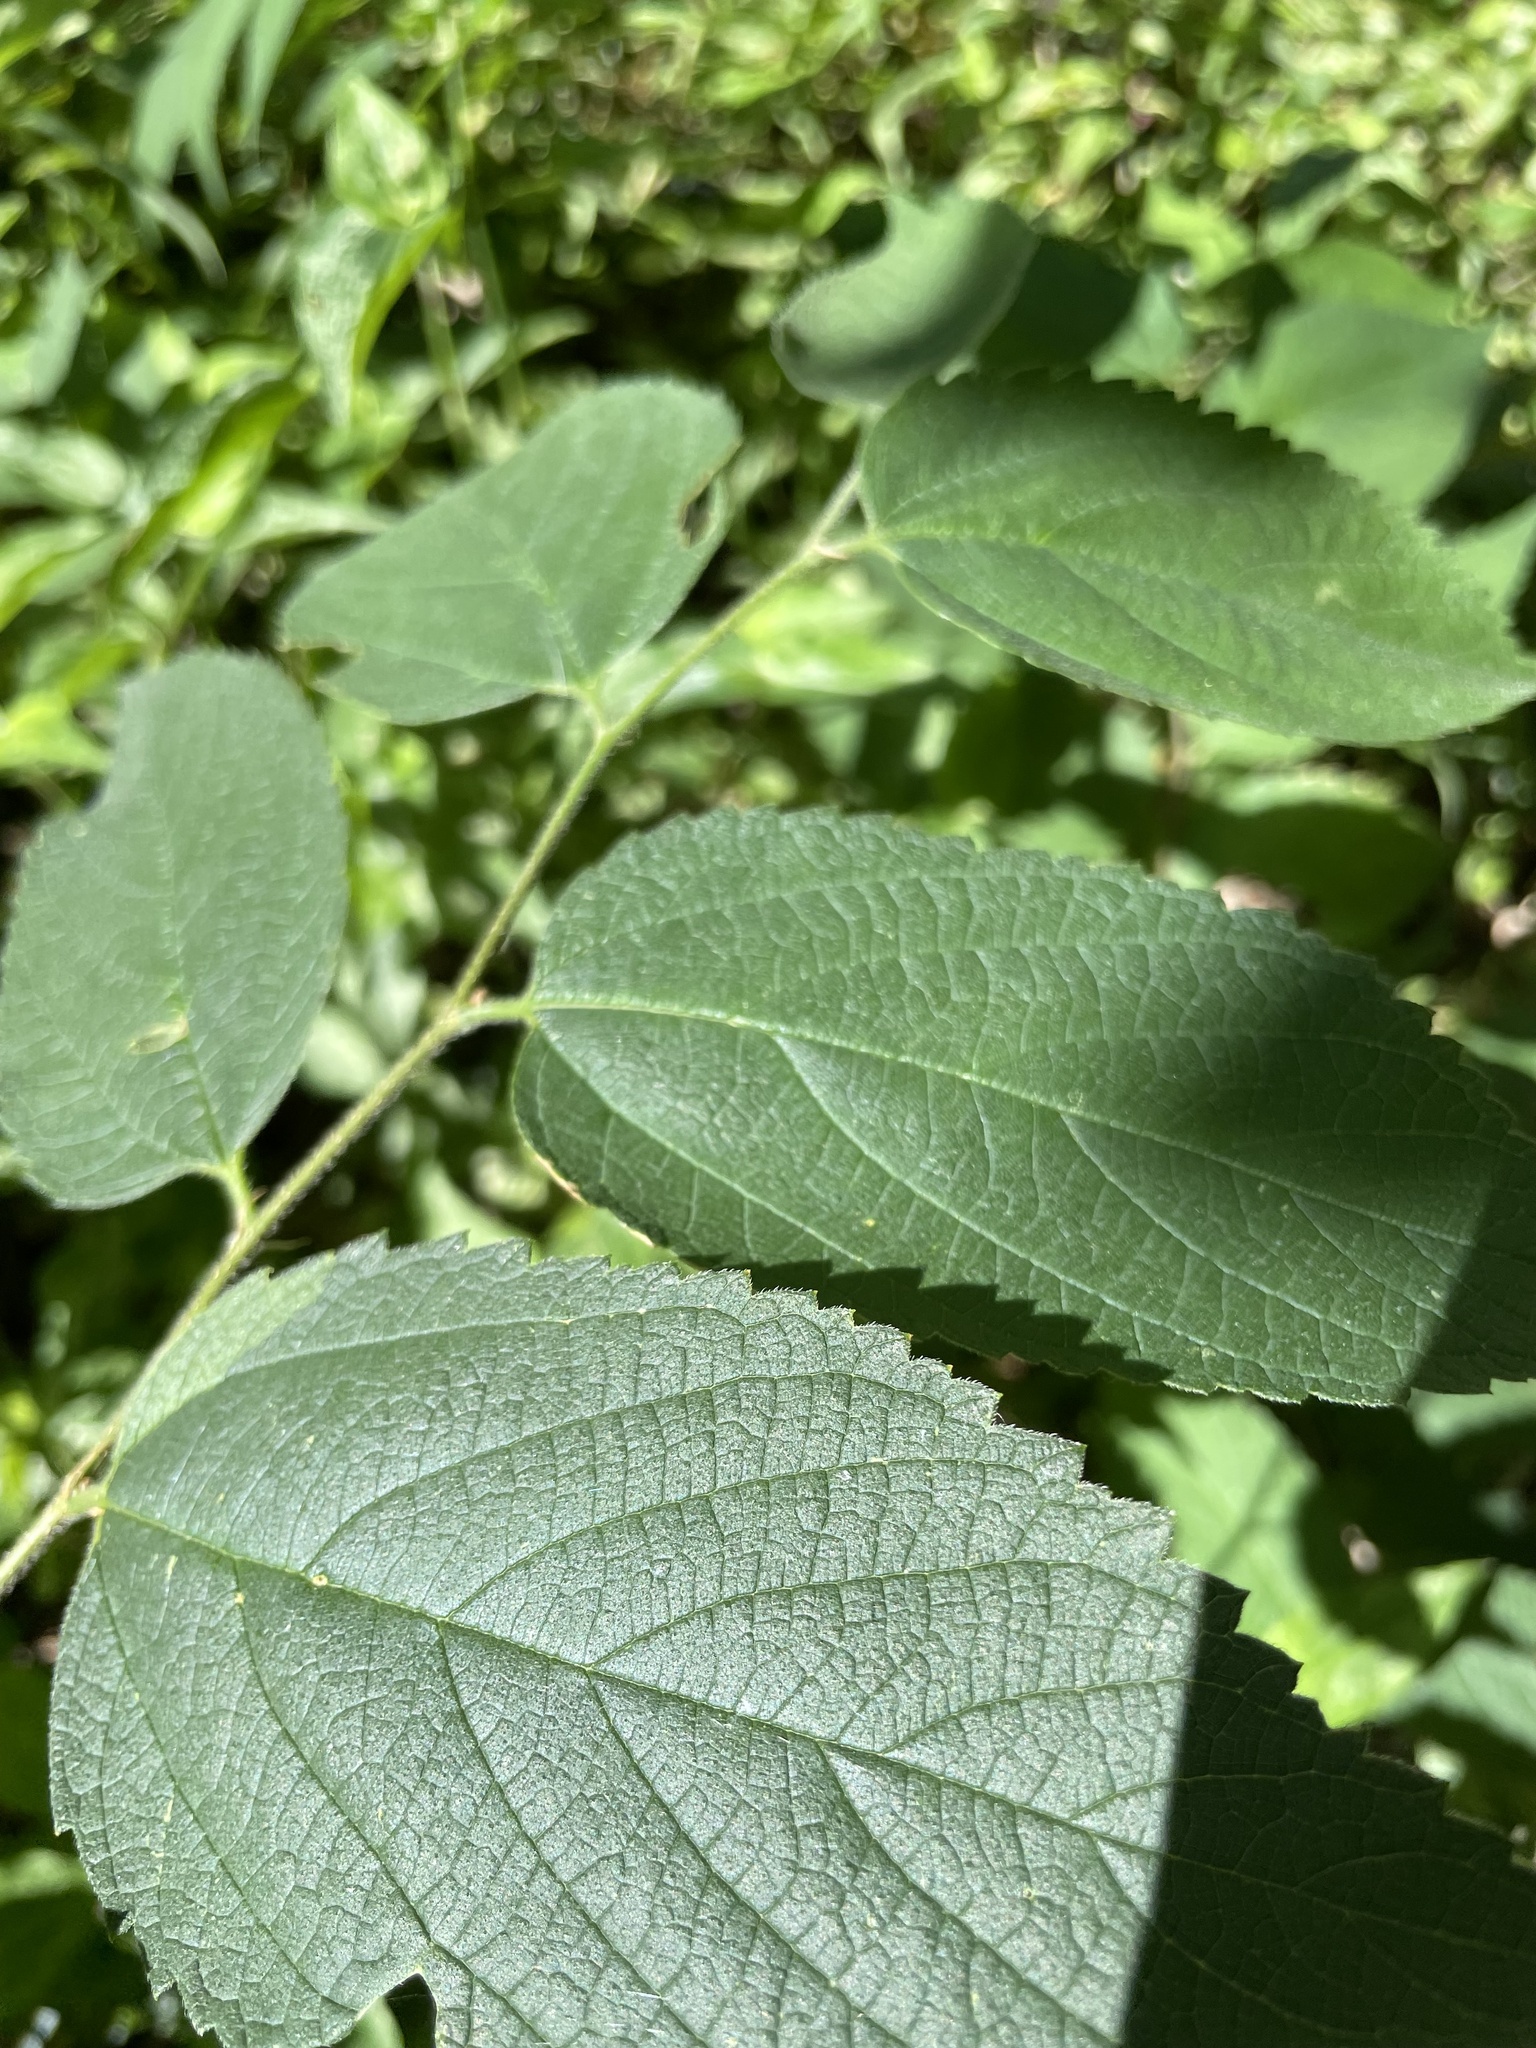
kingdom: Plantae
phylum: Tracheophyta
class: Magnoliopsida
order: Rosales
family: Cannabaceae
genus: Celtis
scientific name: Celtis occidentalis
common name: Common hackberry
